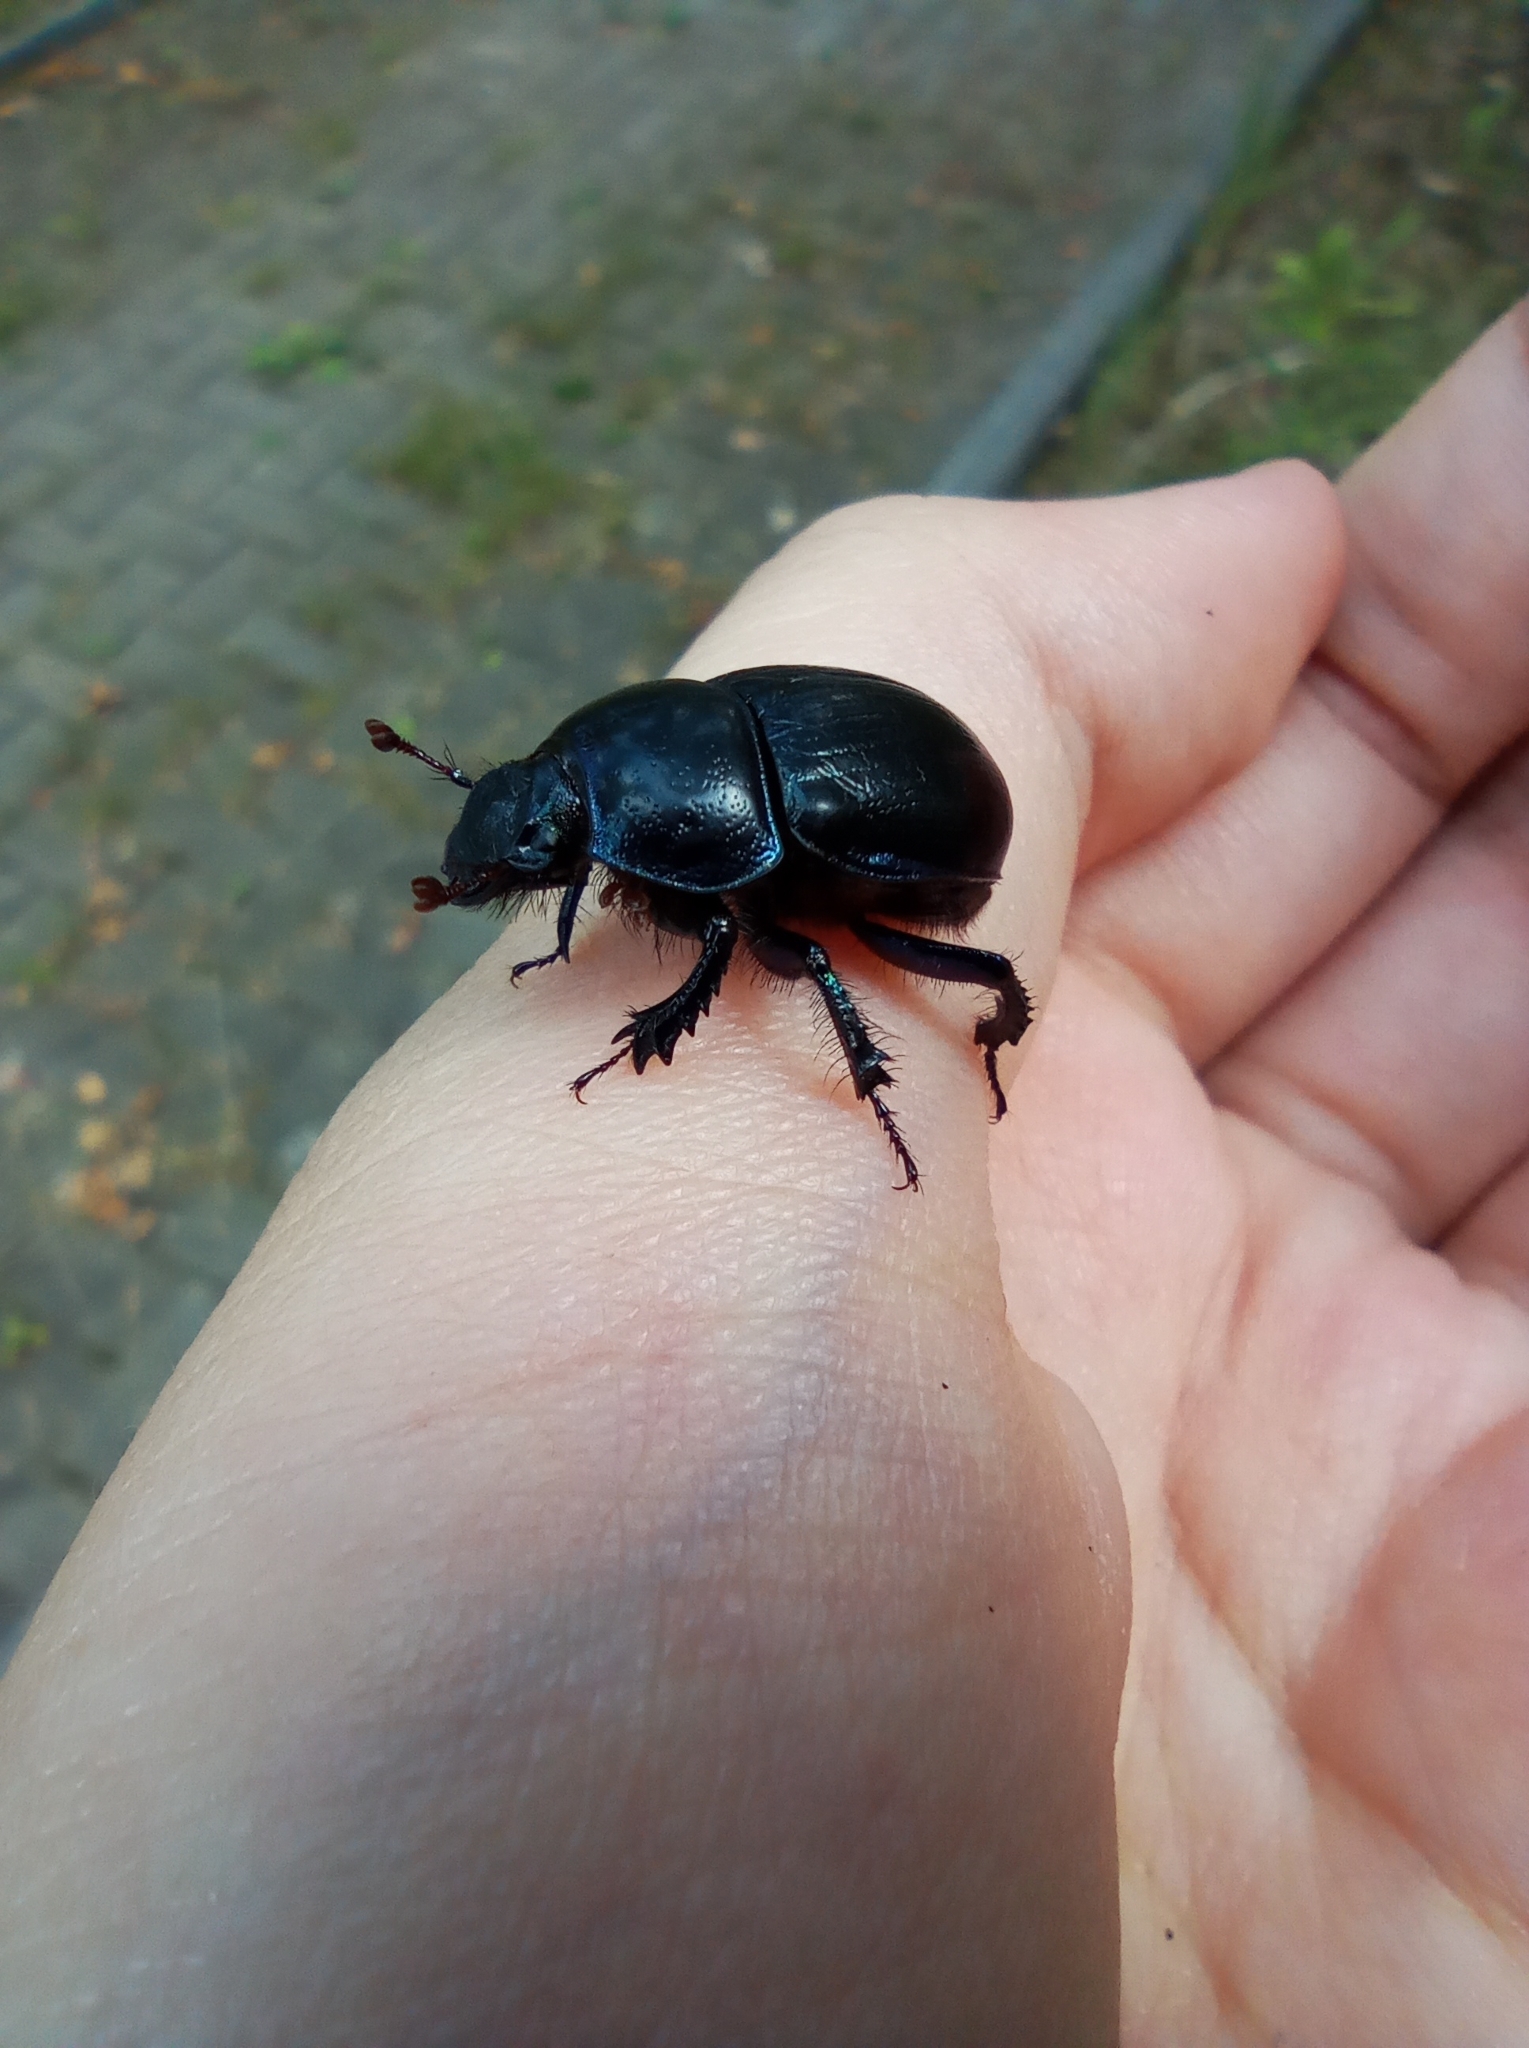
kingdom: Animalia
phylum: Arthropoda
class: Insecta
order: Coleoptera
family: Geotrupidae
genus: Anoplotrupes
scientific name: Anoplotrupes stercorosus
